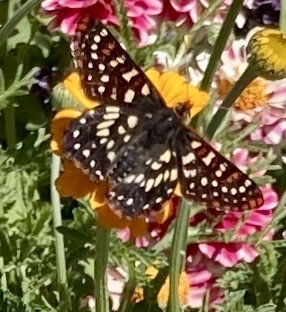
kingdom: Animalia
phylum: Arthropoda
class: Insecta
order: Lepidoptera
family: Nymphalidae
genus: Occidryas
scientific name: Occidryas chalcedona
